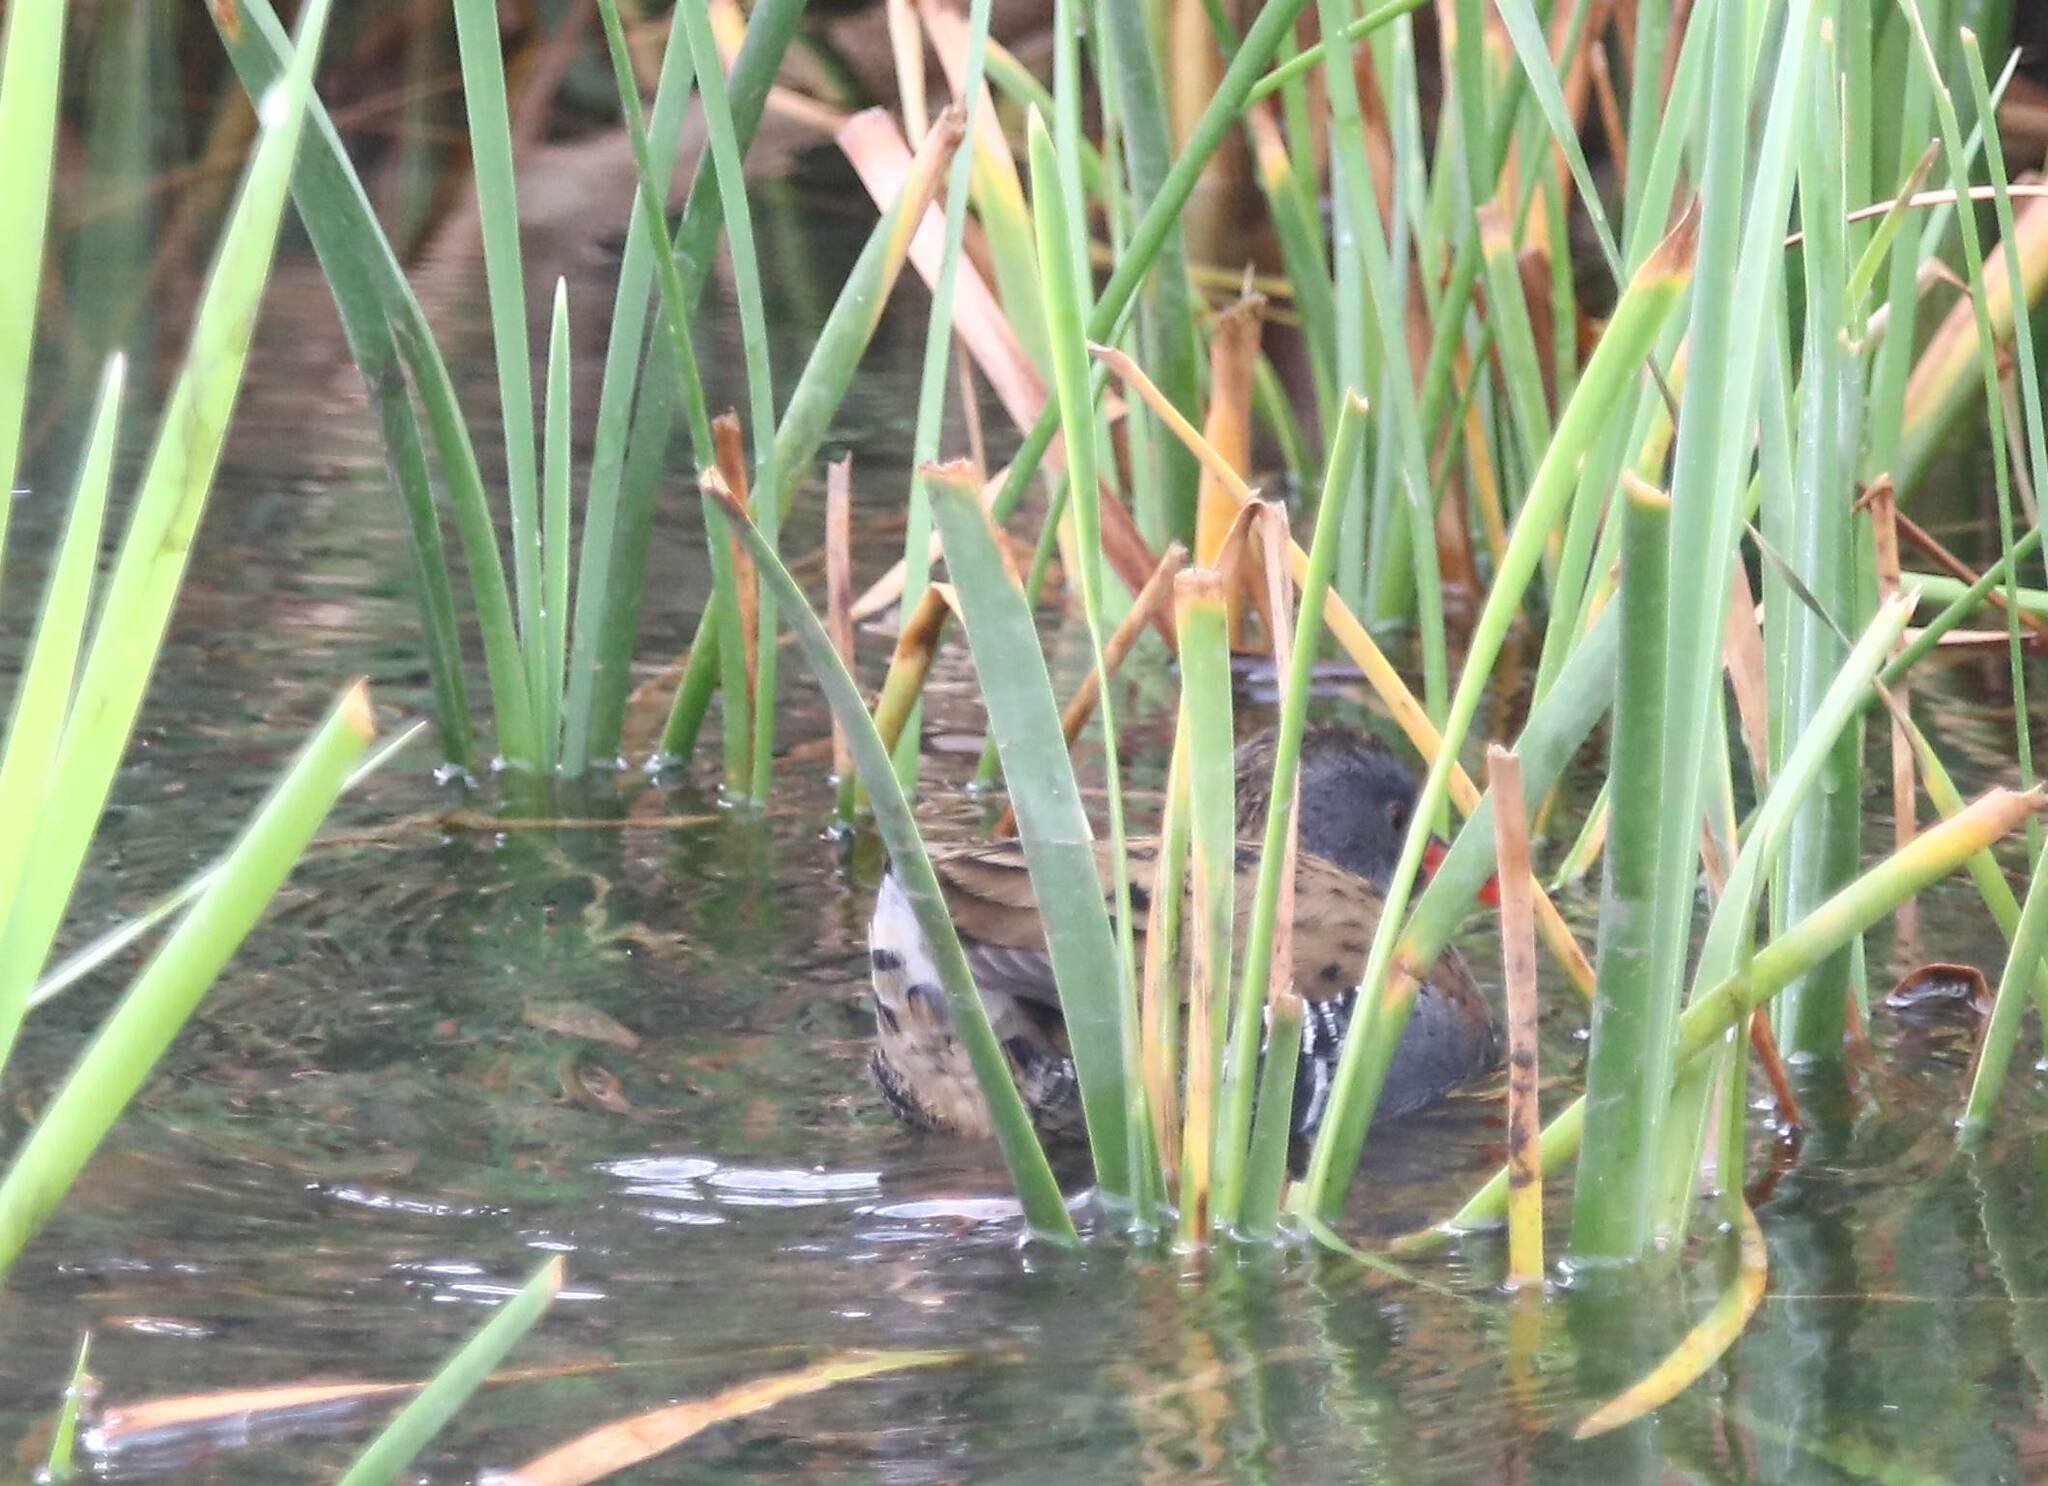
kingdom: Animalia
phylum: Chordata
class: Aves
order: Gruiformes
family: Rallidae
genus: Rallus
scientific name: Rallus aquaticus
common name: Water rail
